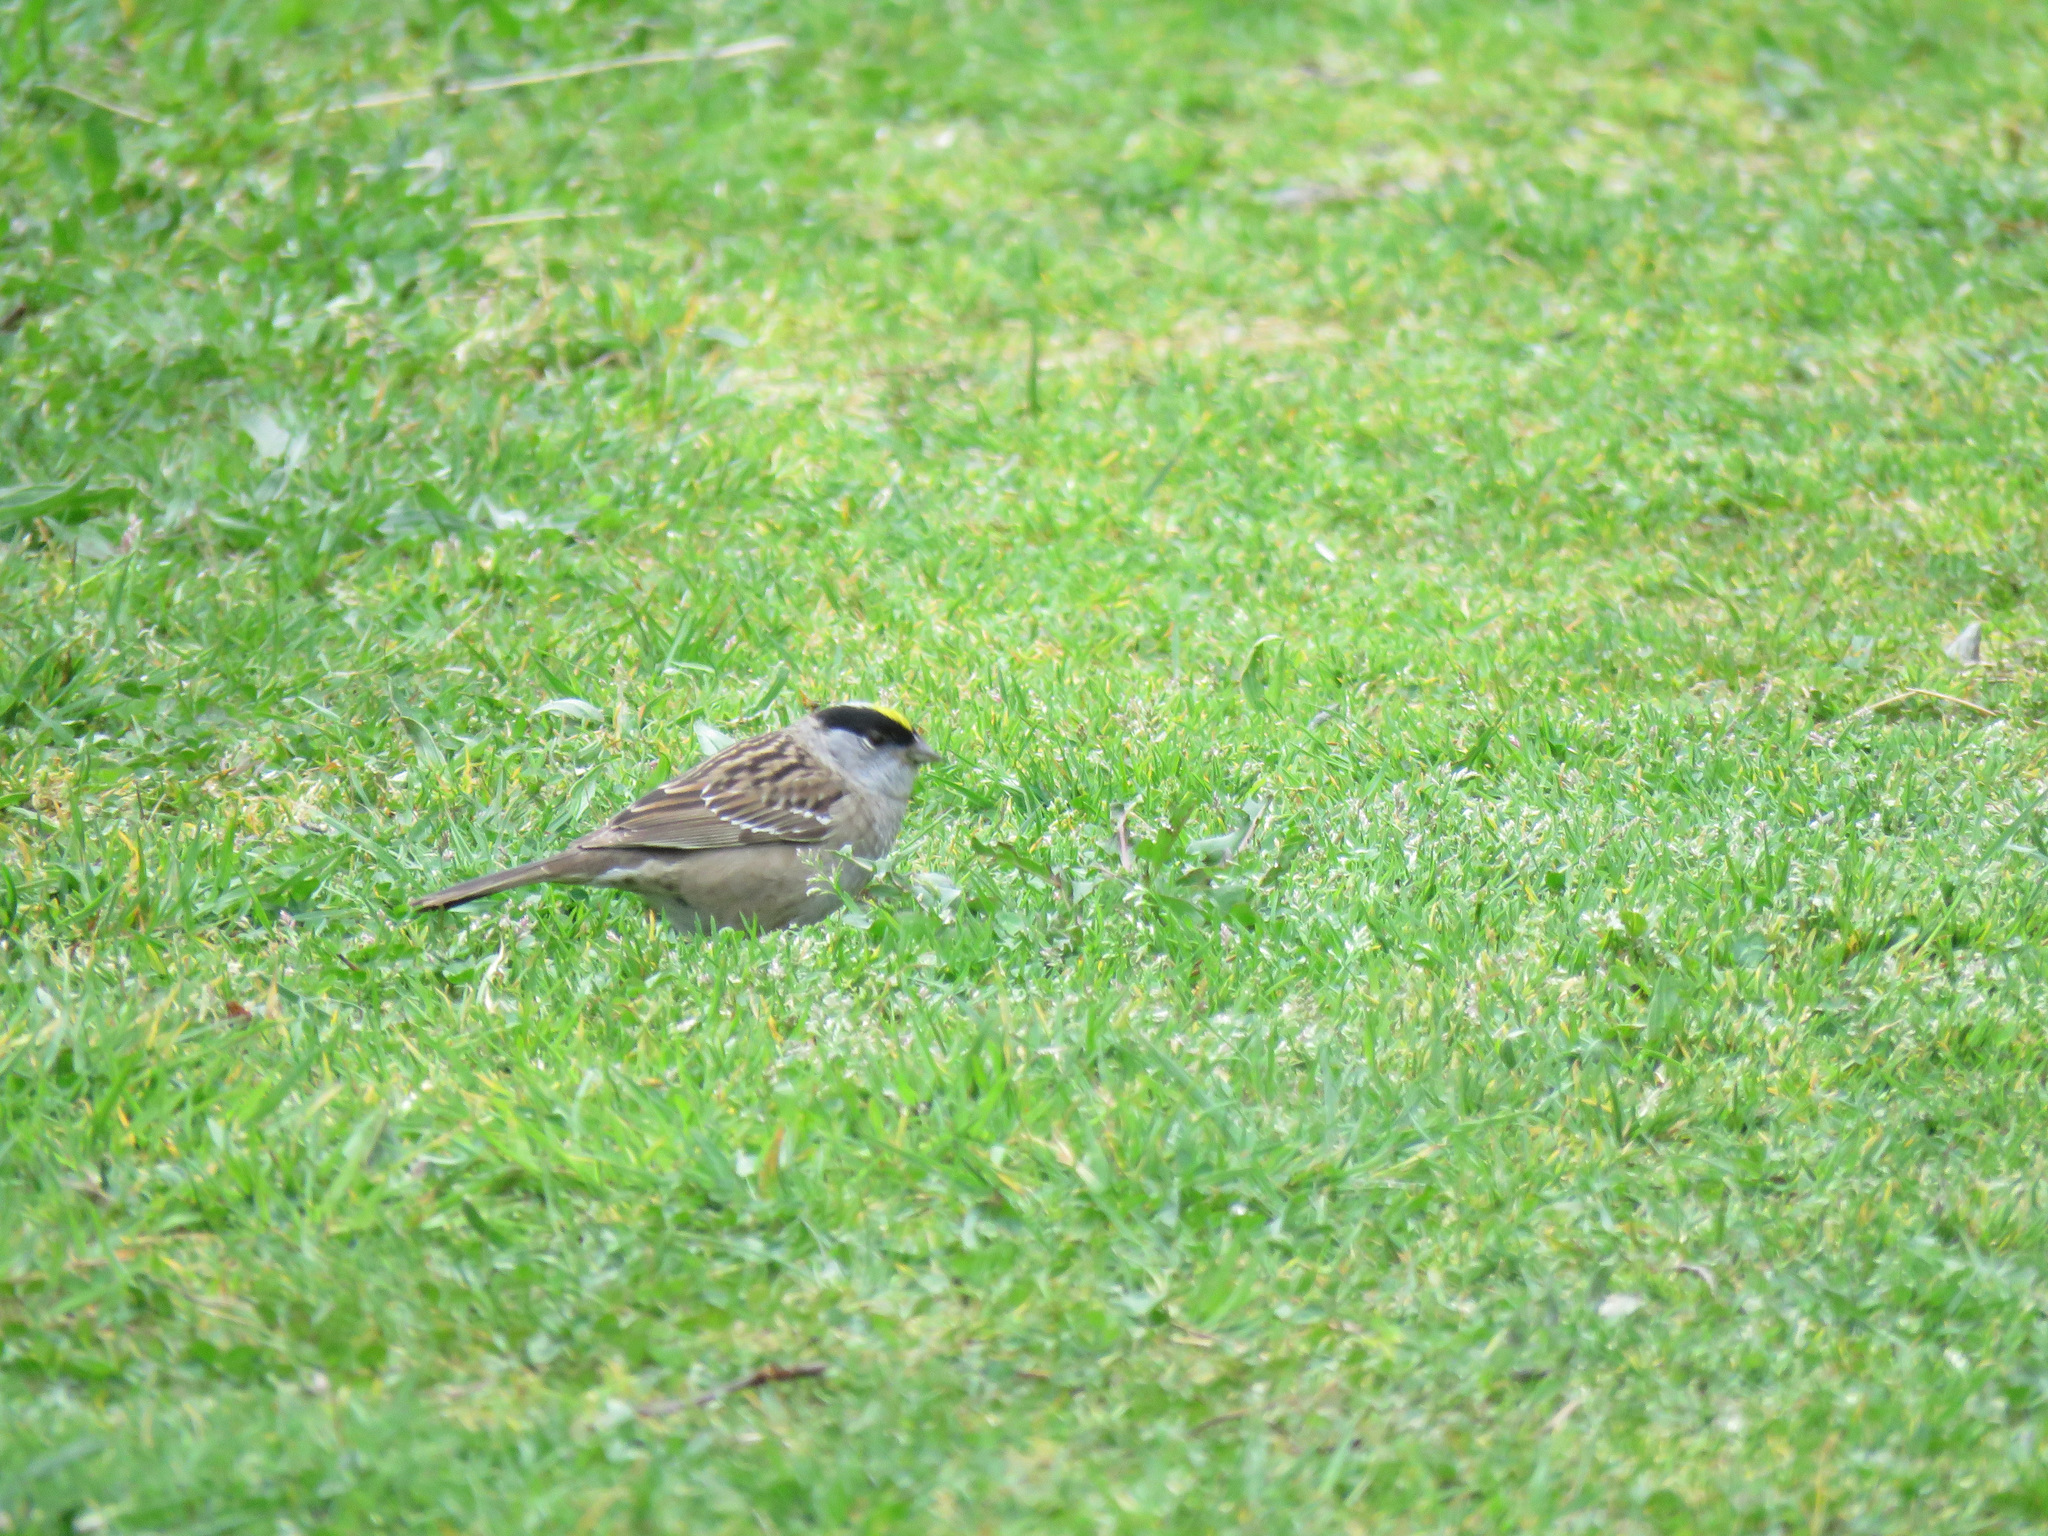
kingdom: Animalia
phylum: Chordata
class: Aves
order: Passeriformes
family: Passerellidae
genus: Zonotrichia
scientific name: Zonotrichia atricapilla
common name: Golden-crowned sparrow
